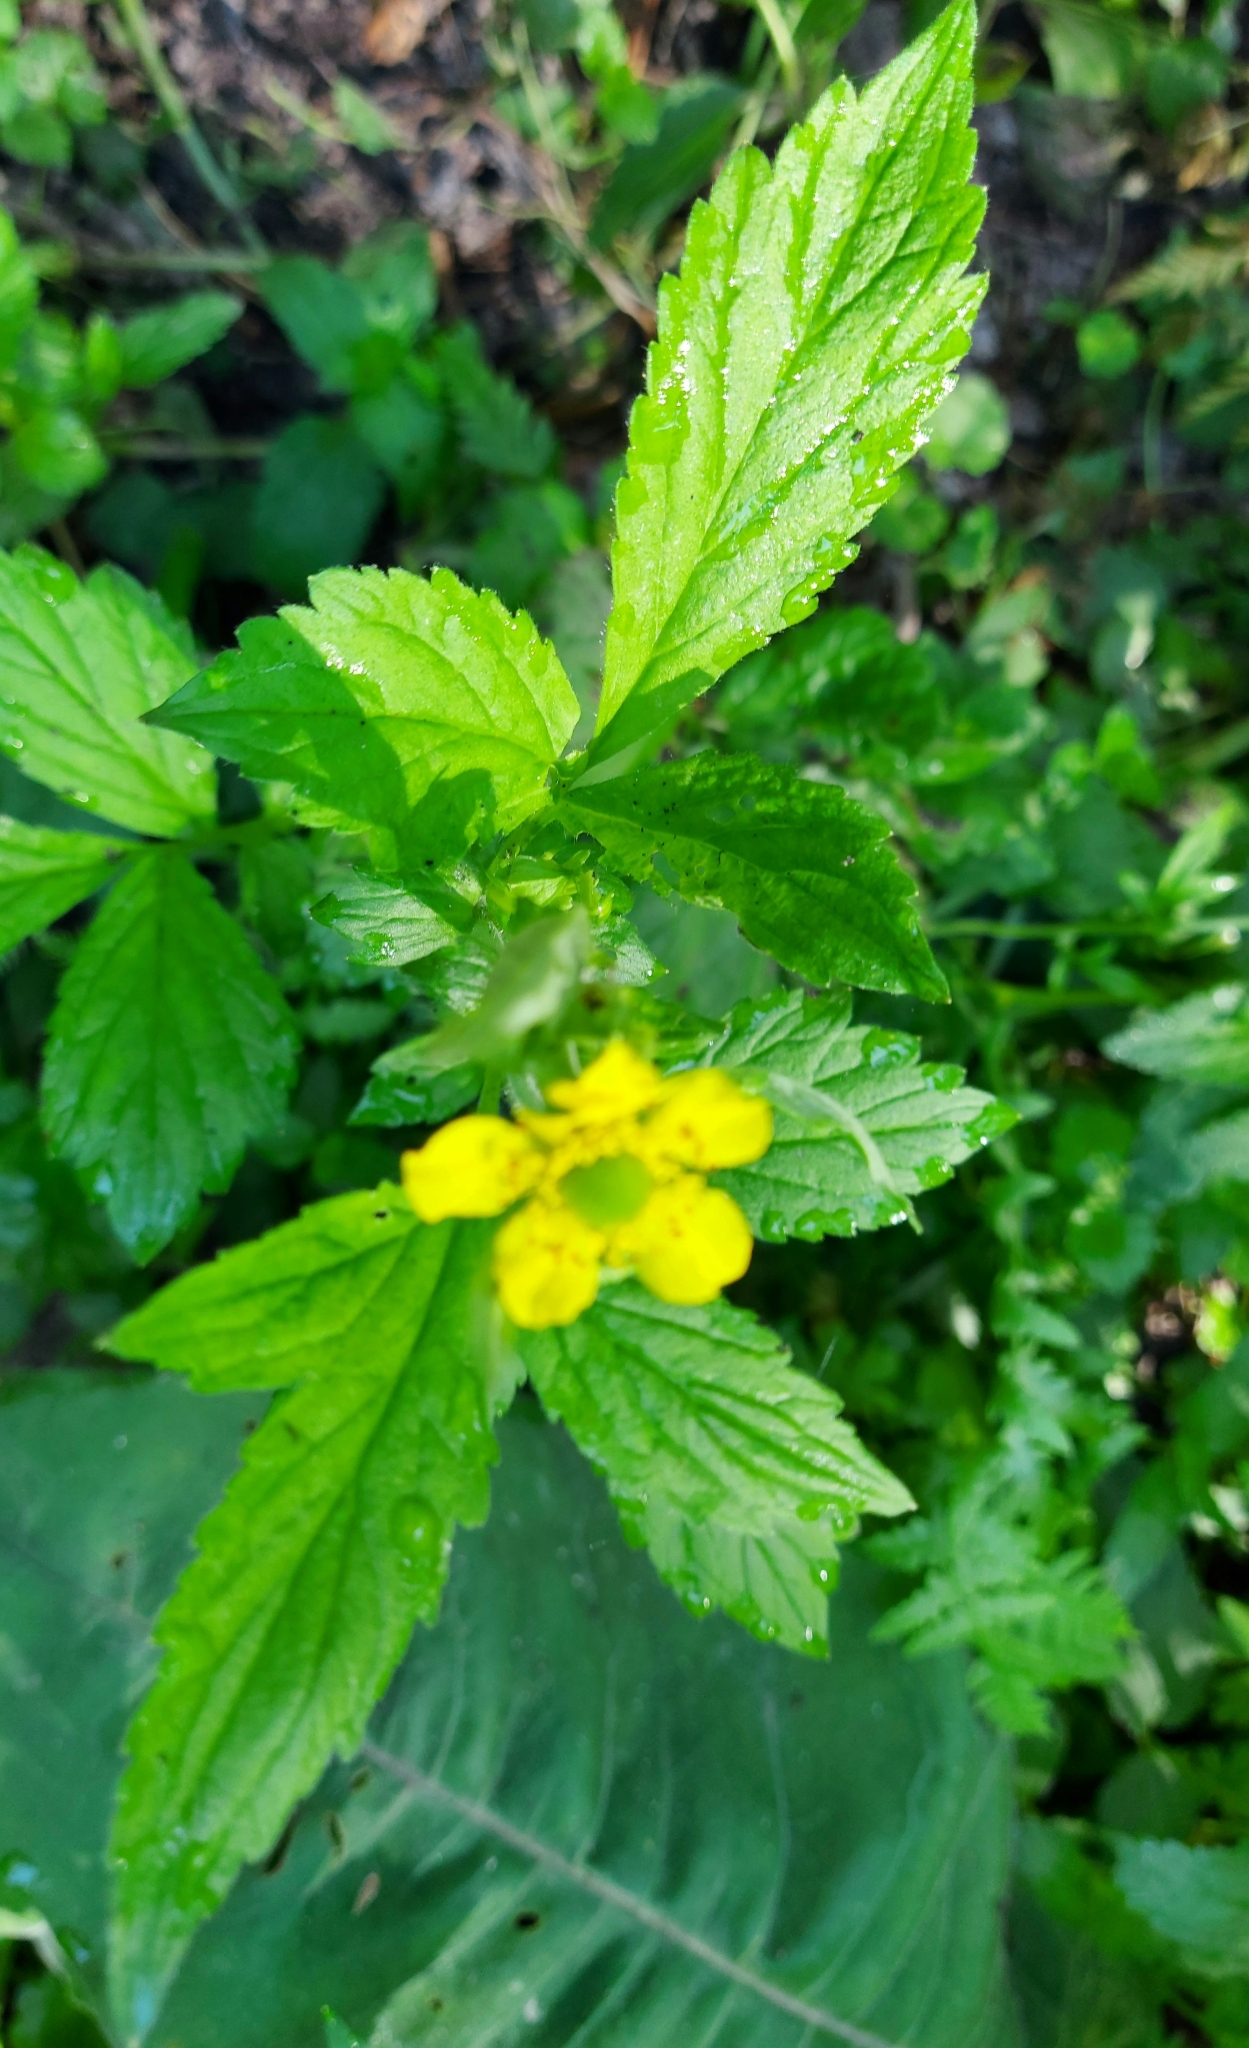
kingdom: Plantae
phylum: Tracheophyta
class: Magnoliopsida
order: Rosales
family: Rosaceae
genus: Geum
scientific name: Geum aleppicum
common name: Yellow avens
